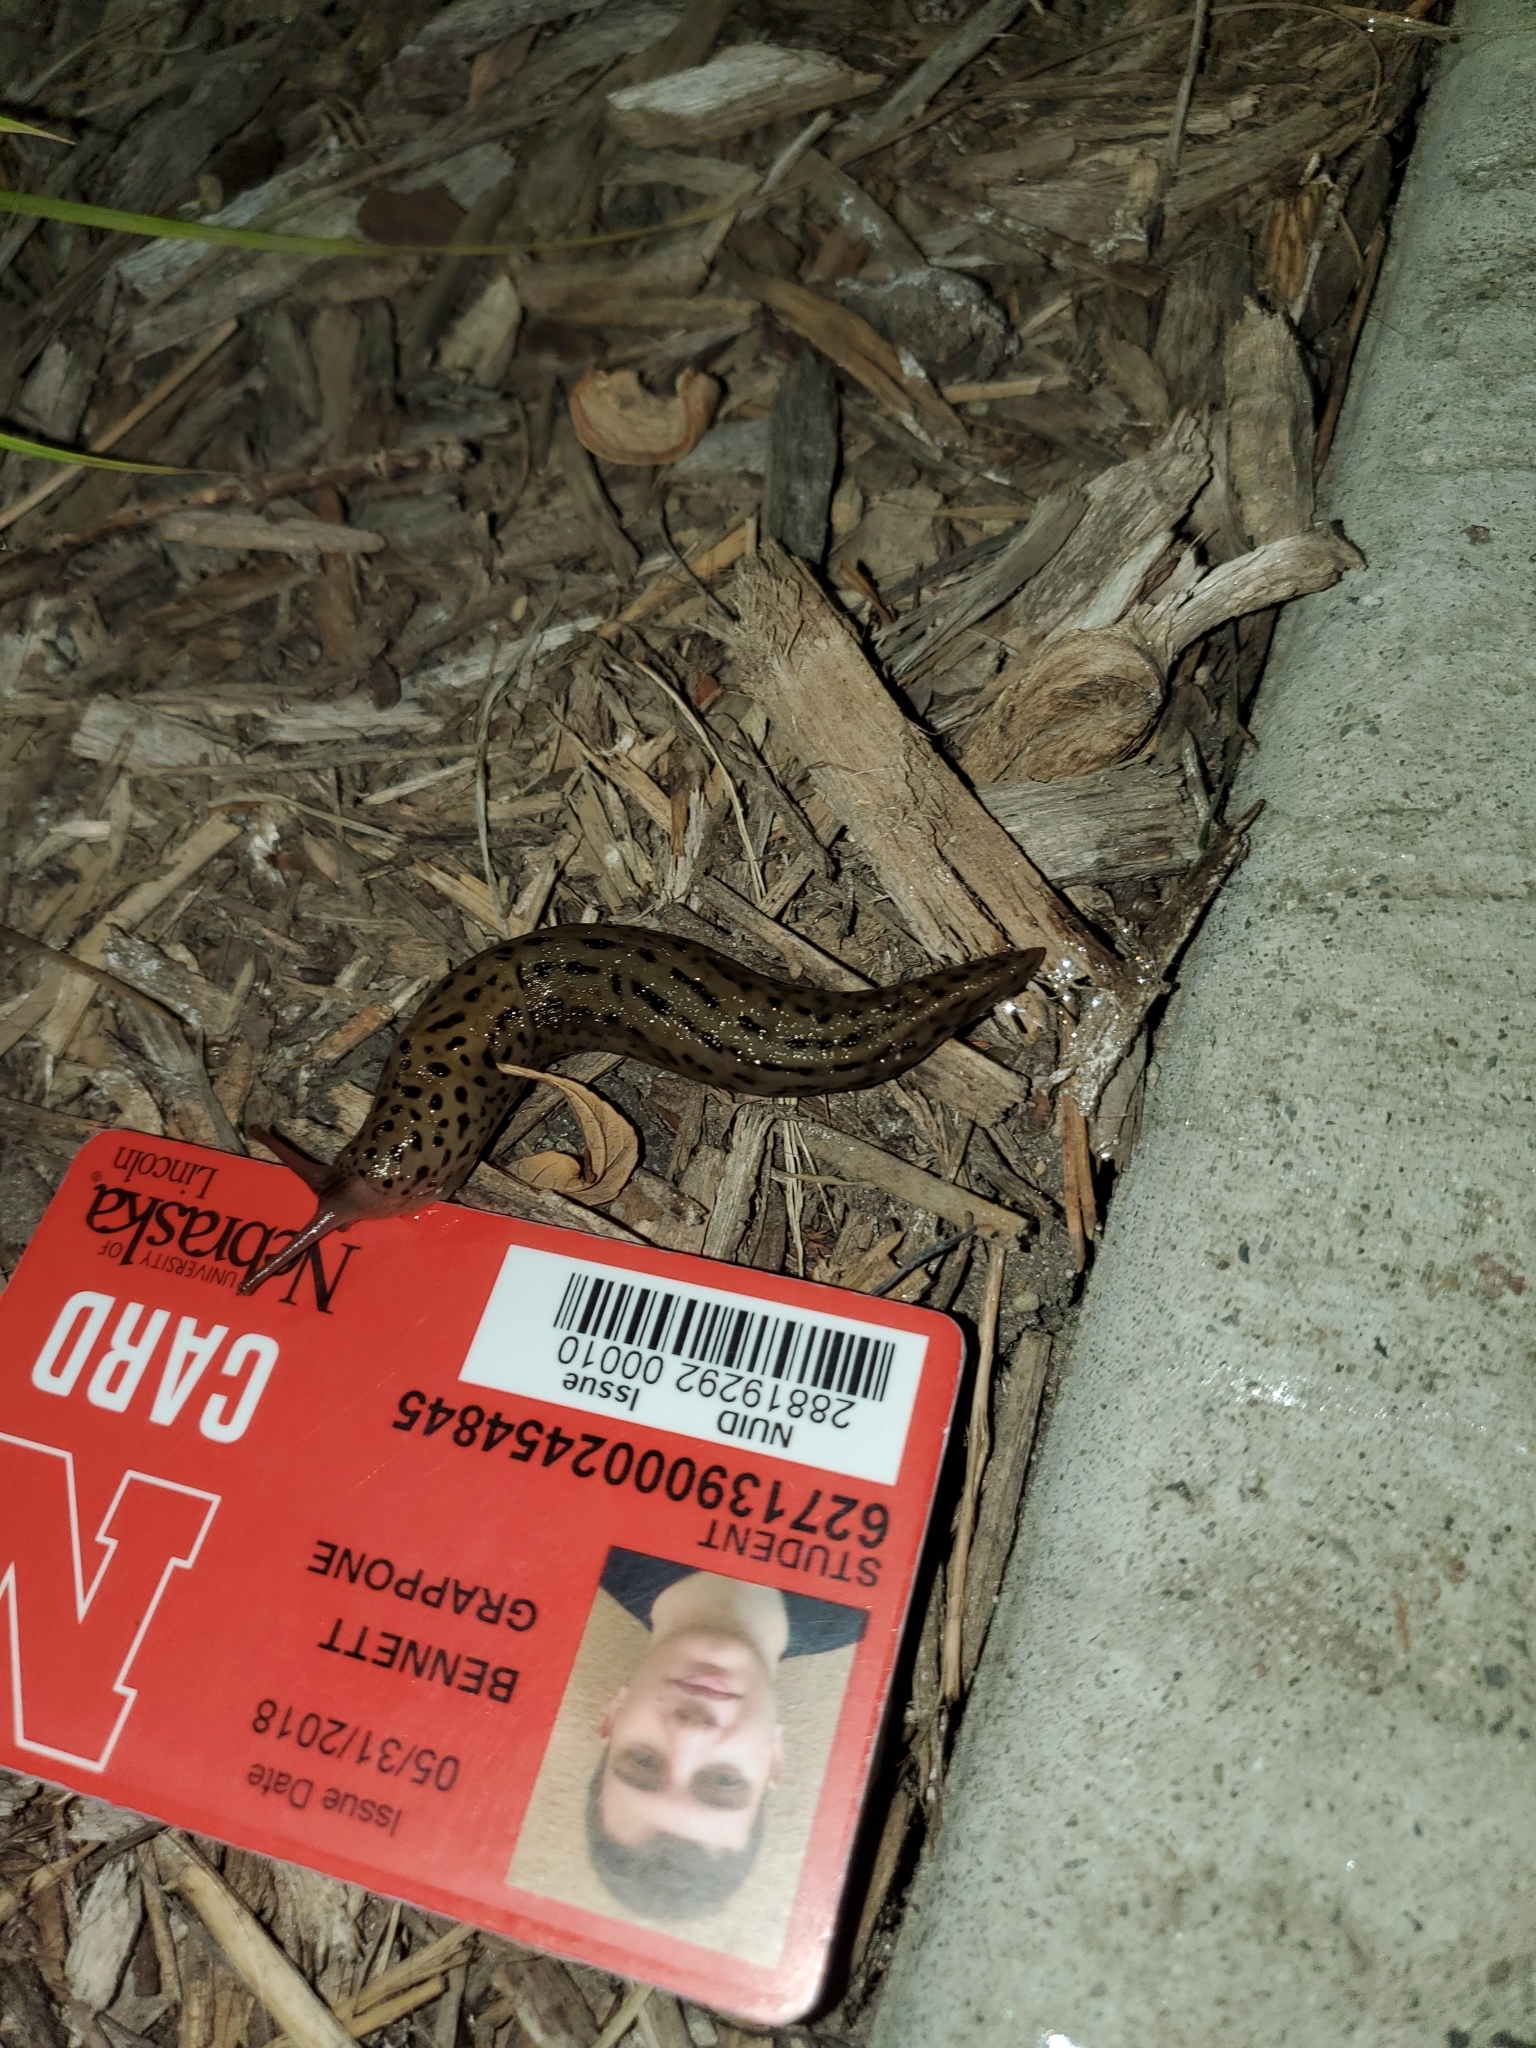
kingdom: Animalia
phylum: Mollusca
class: Gastropoda
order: Stylommatophora
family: Limacidae
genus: Limax
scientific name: Limax maximus
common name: Great grey slug
